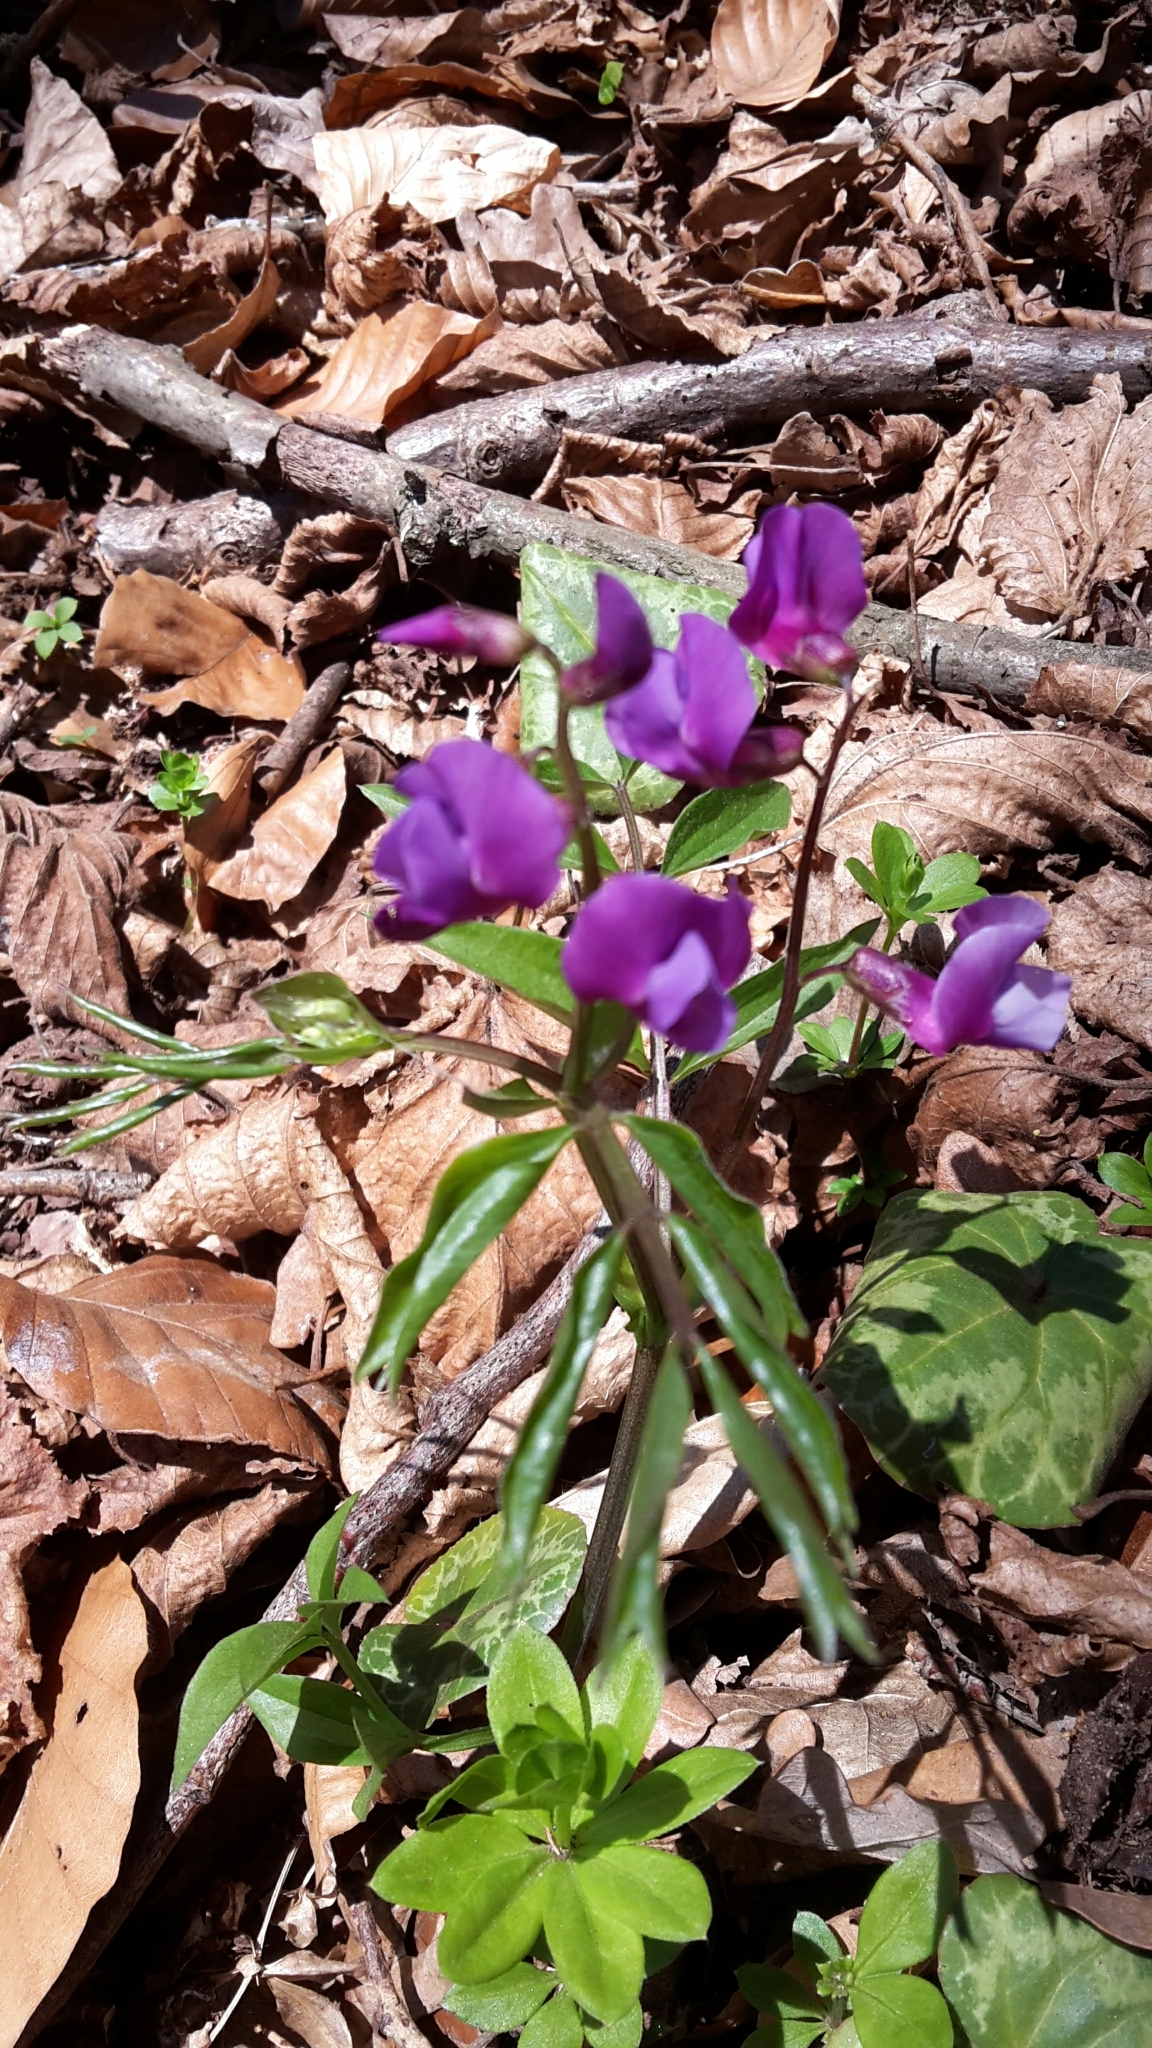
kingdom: Plantae
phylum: Tracheophyta
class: Magnoliopsida
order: Fabales
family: Fabaceae
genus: Lathyrus
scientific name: Lathyrus vernus
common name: Spring pea
